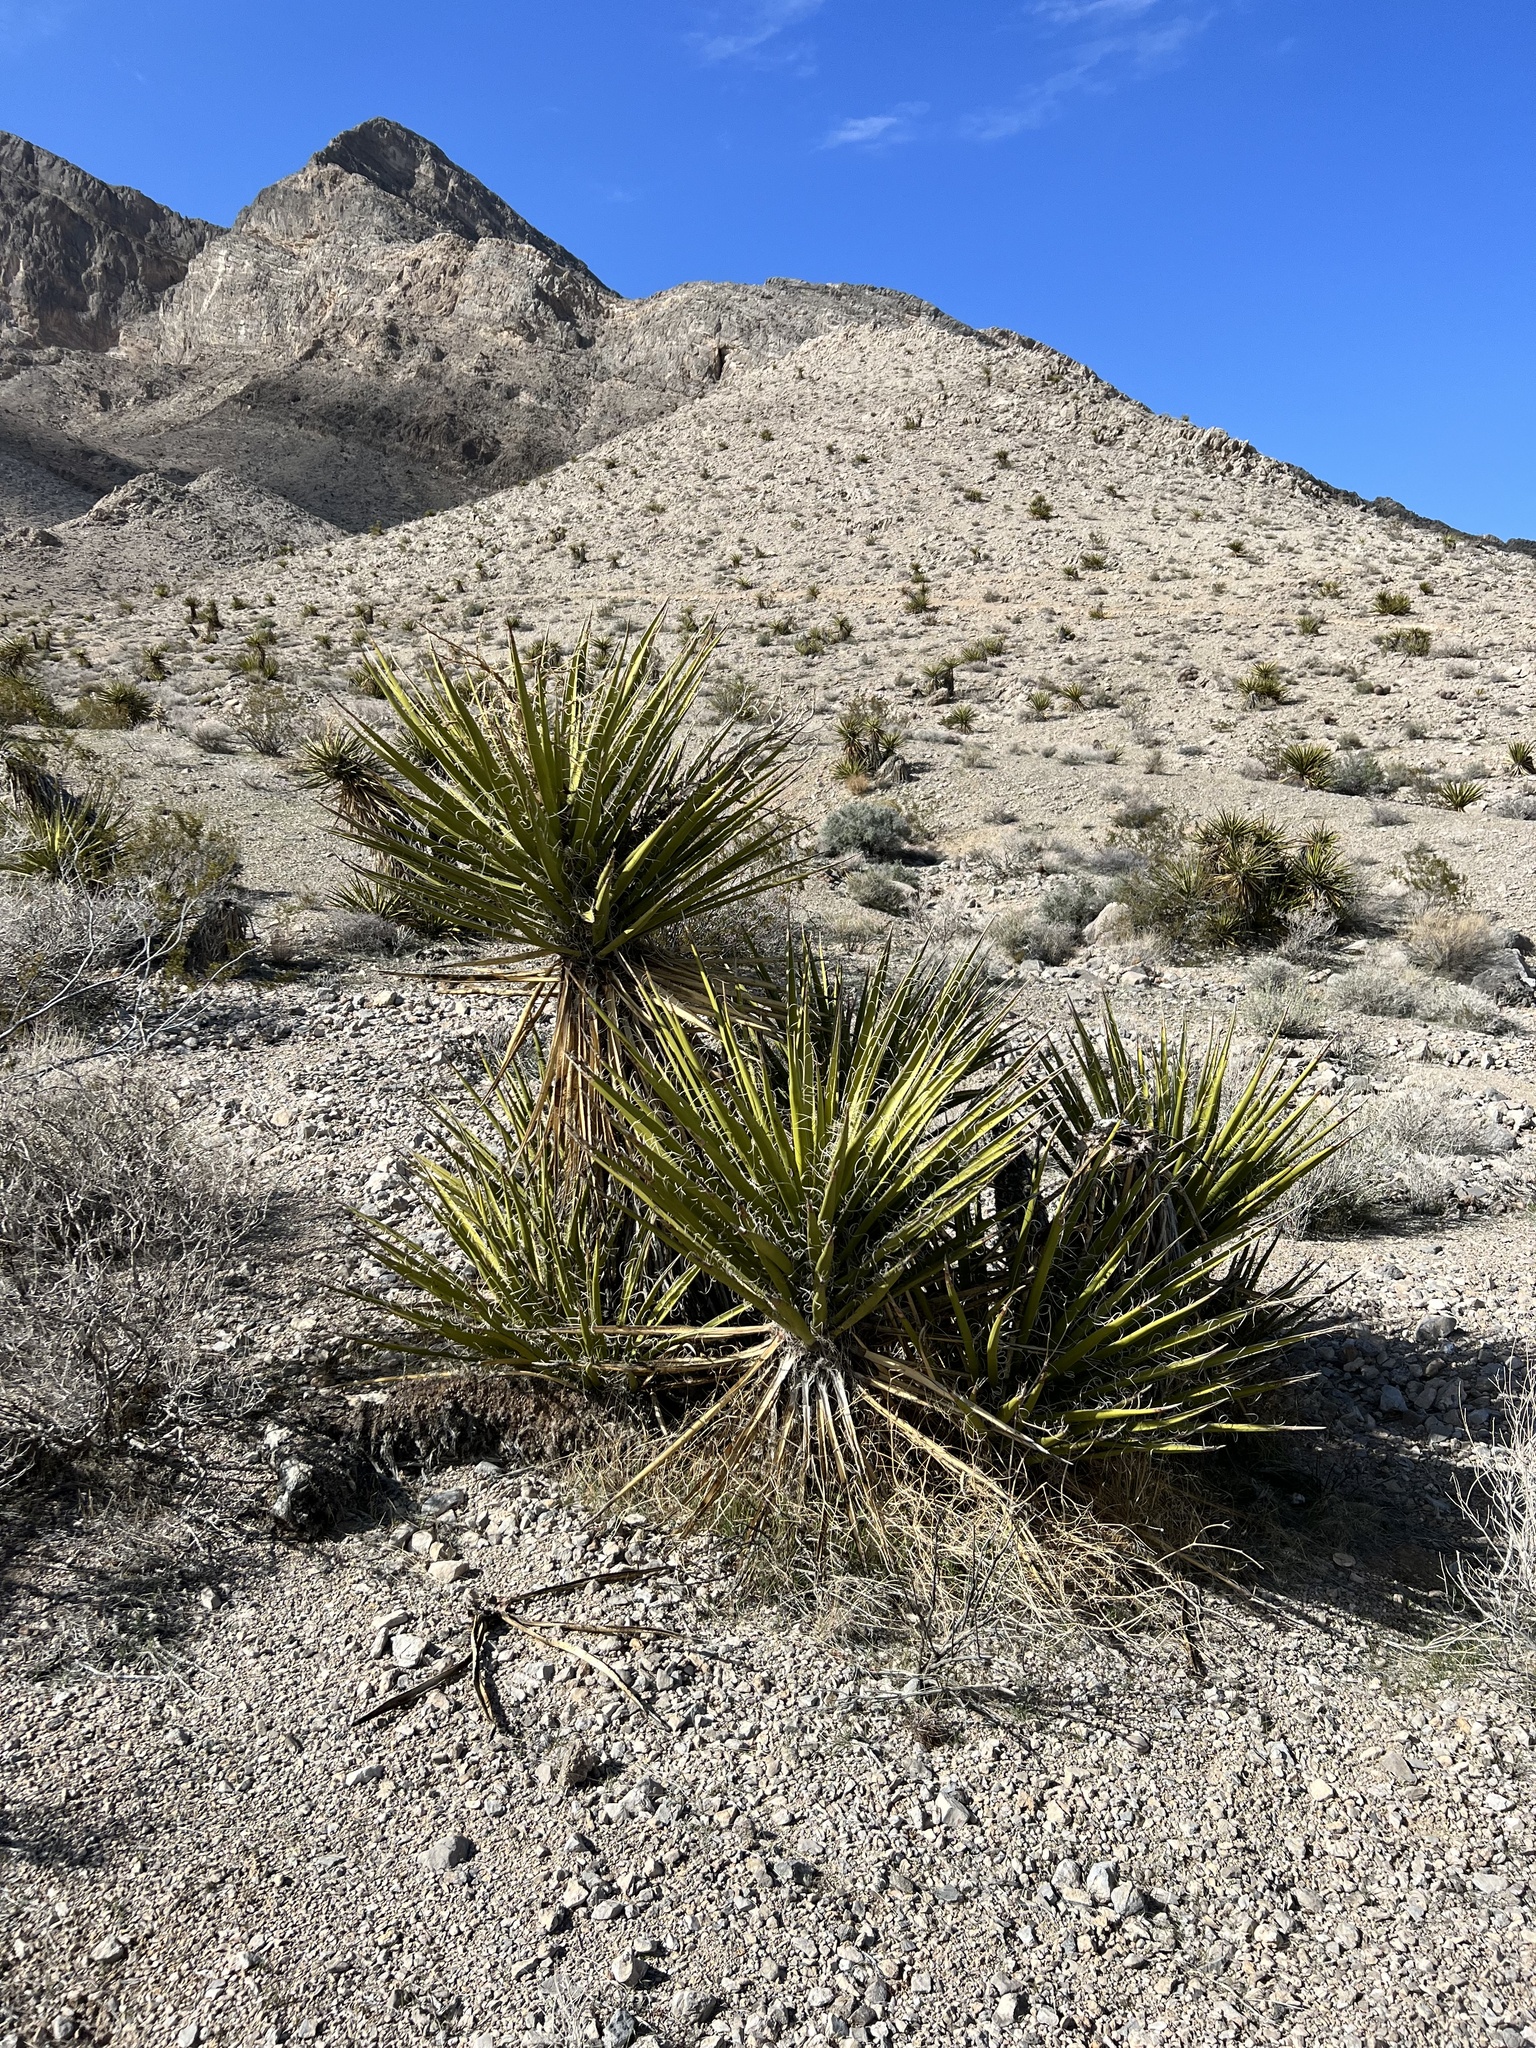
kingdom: Plantae
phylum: Tracheophyta
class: Liliopsida
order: Asparagales
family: Asparagaceae
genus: Yucca
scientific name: Yucca schidigera
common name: Mojave yucca
